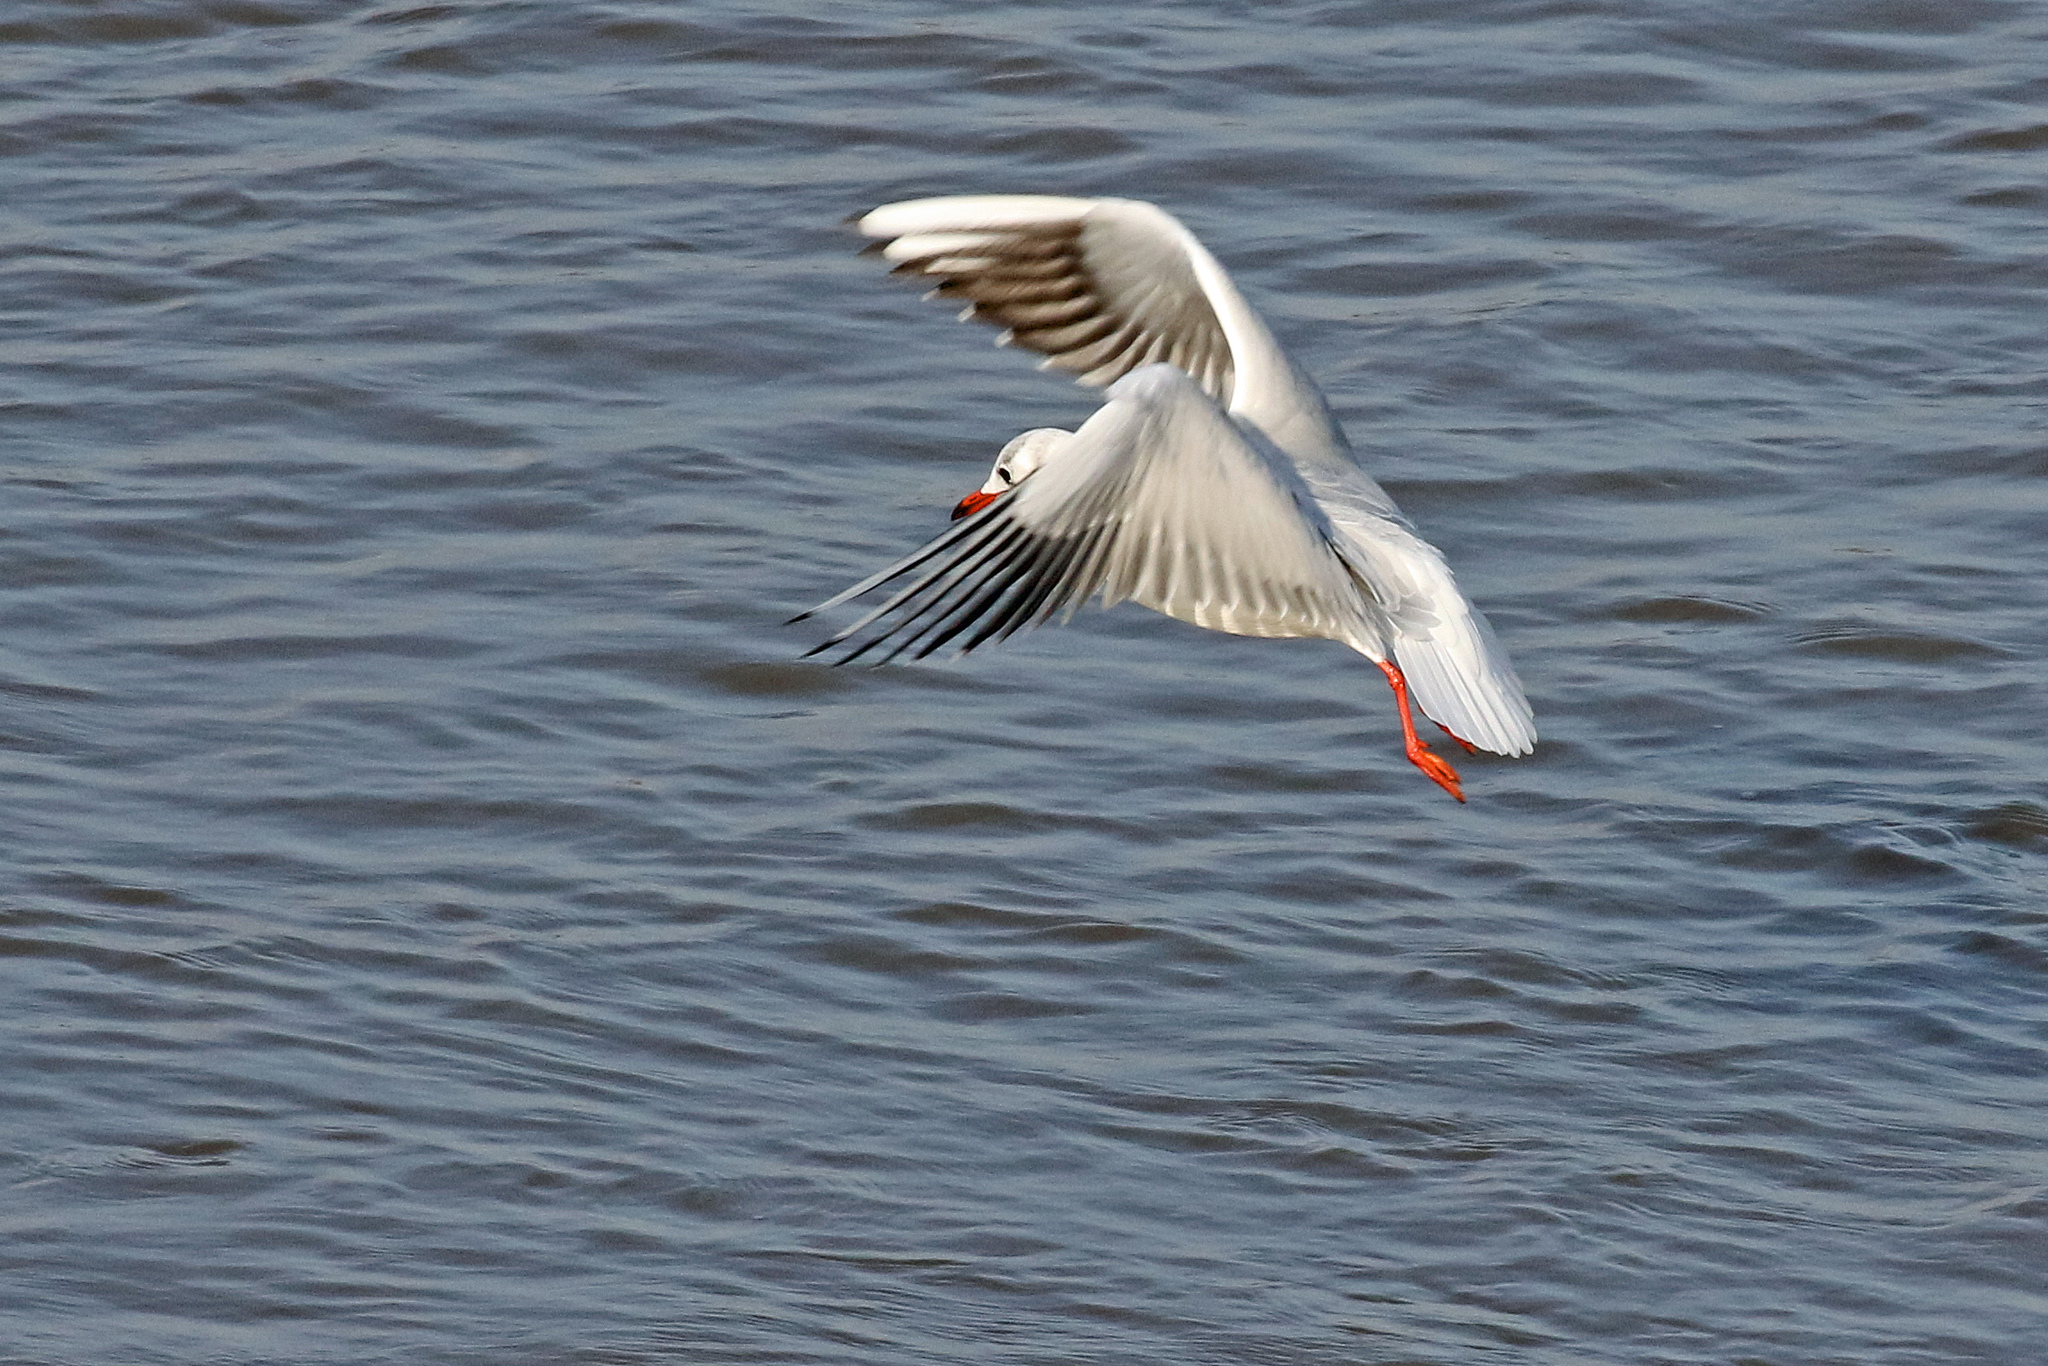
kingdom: Animalia
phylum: Chordata
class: Aves
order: Charadriiformes
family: Laridae
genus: Chroicocephalus
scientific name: Chroicocephalus ridibundus
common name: Black-headed gull
